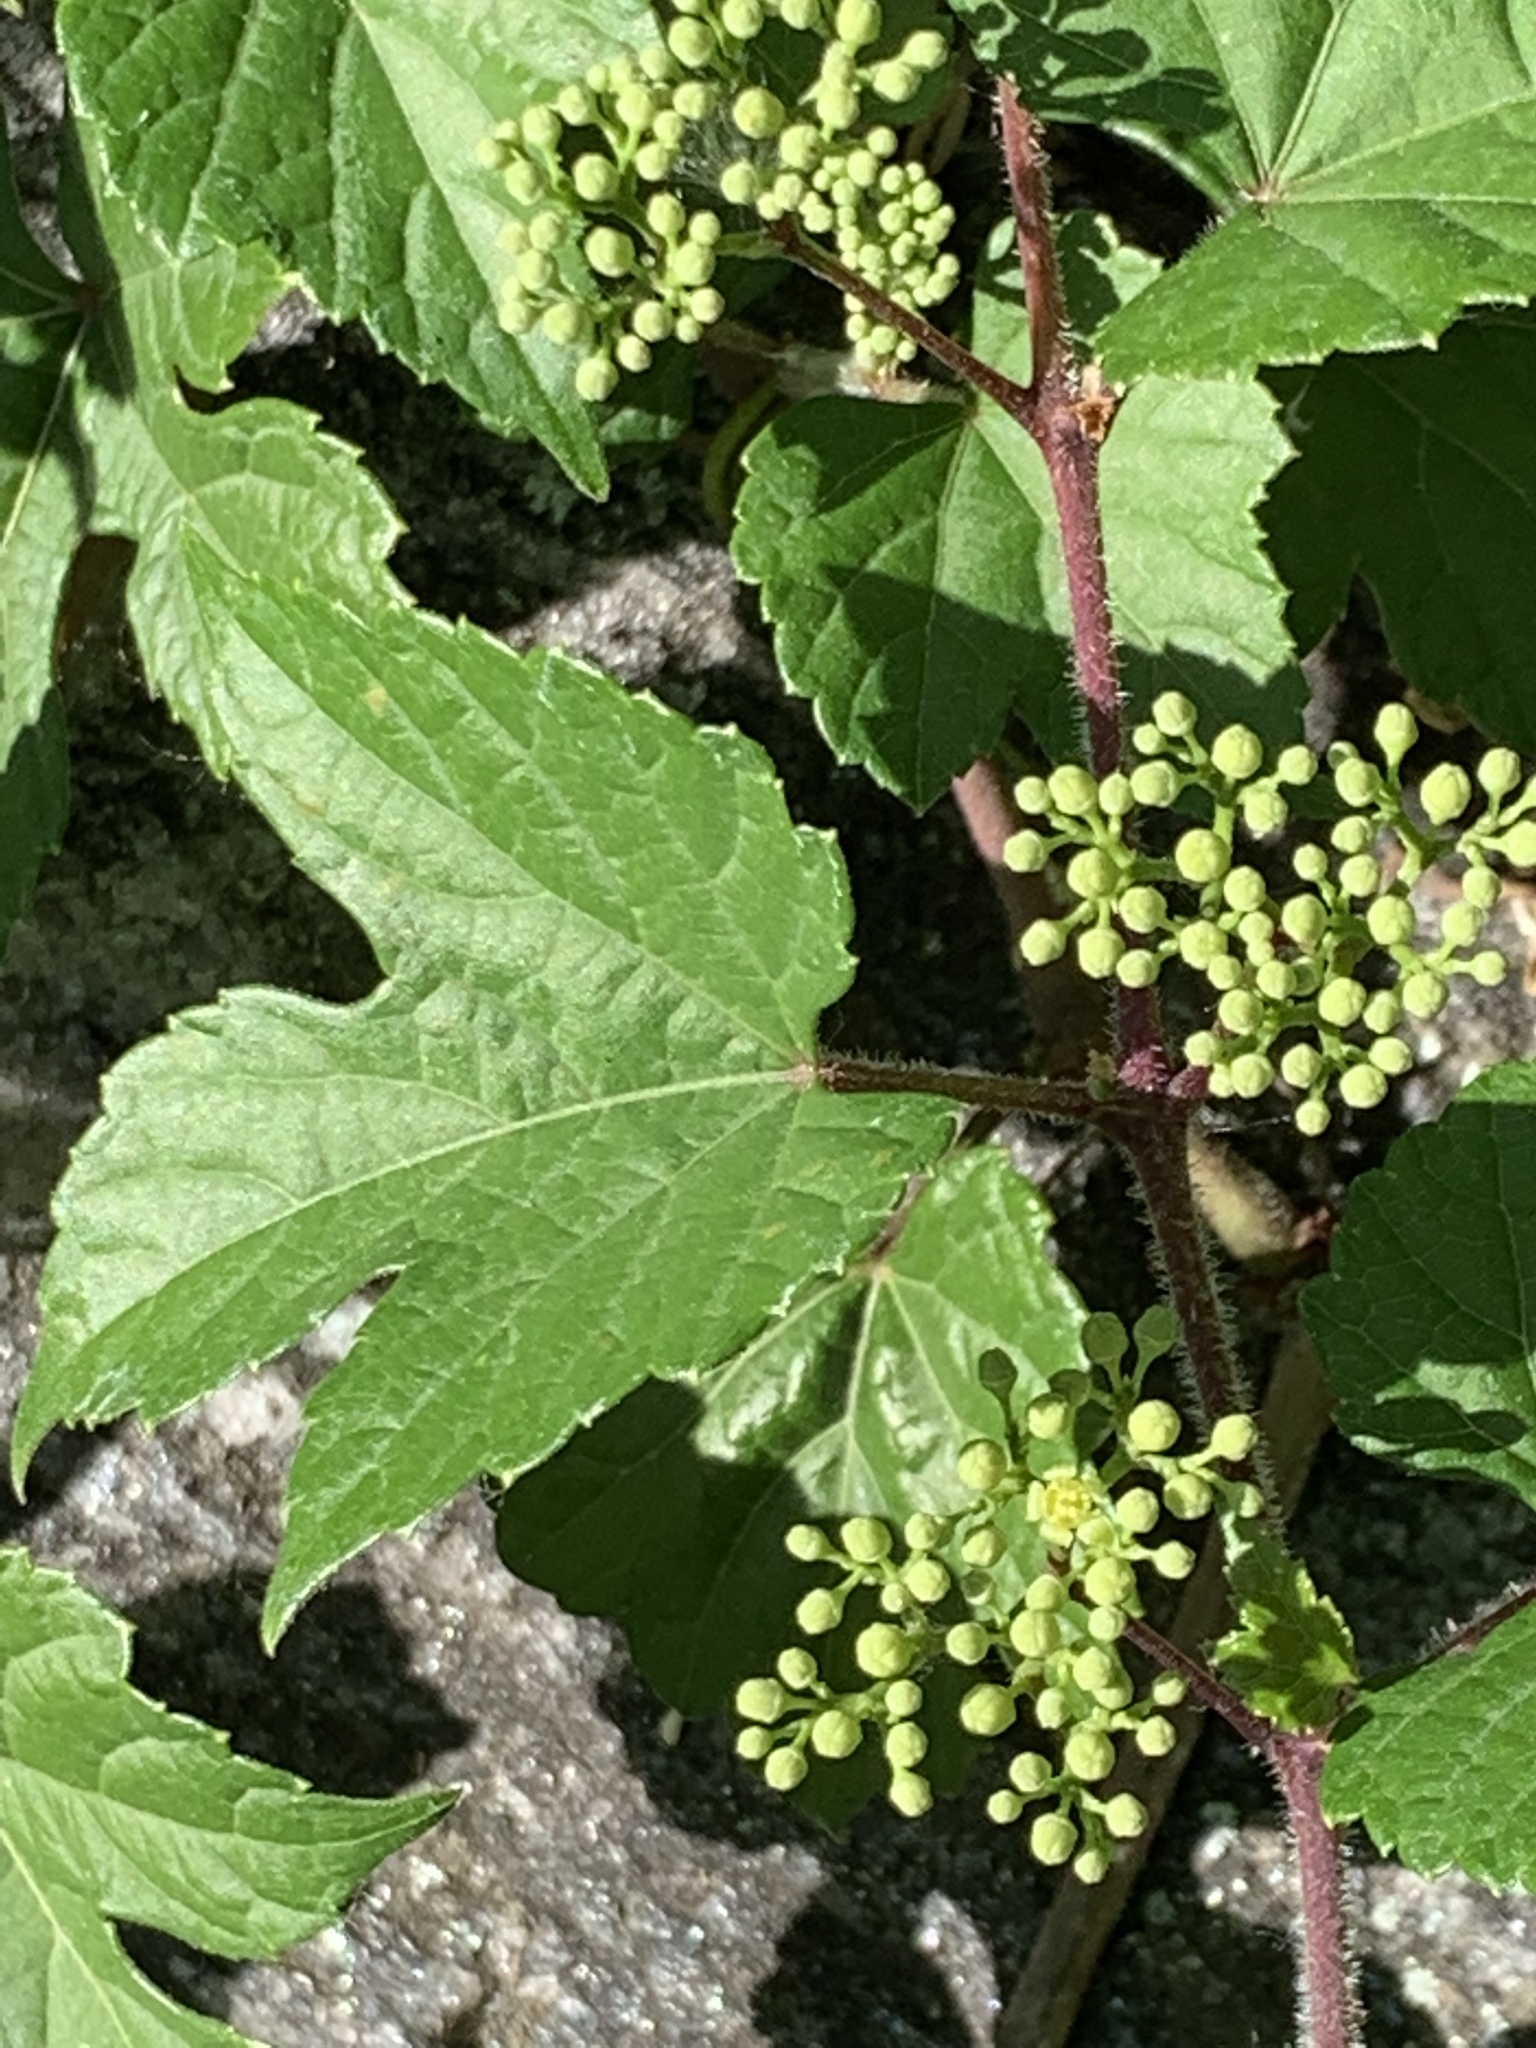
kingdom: Plantae
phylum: Tracheophyta
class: Magnoliopsida
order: Vitales
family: Vitaceae
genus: Ampelopsis
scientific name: Ampelopsis glandulosa
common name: Amur peppervine
